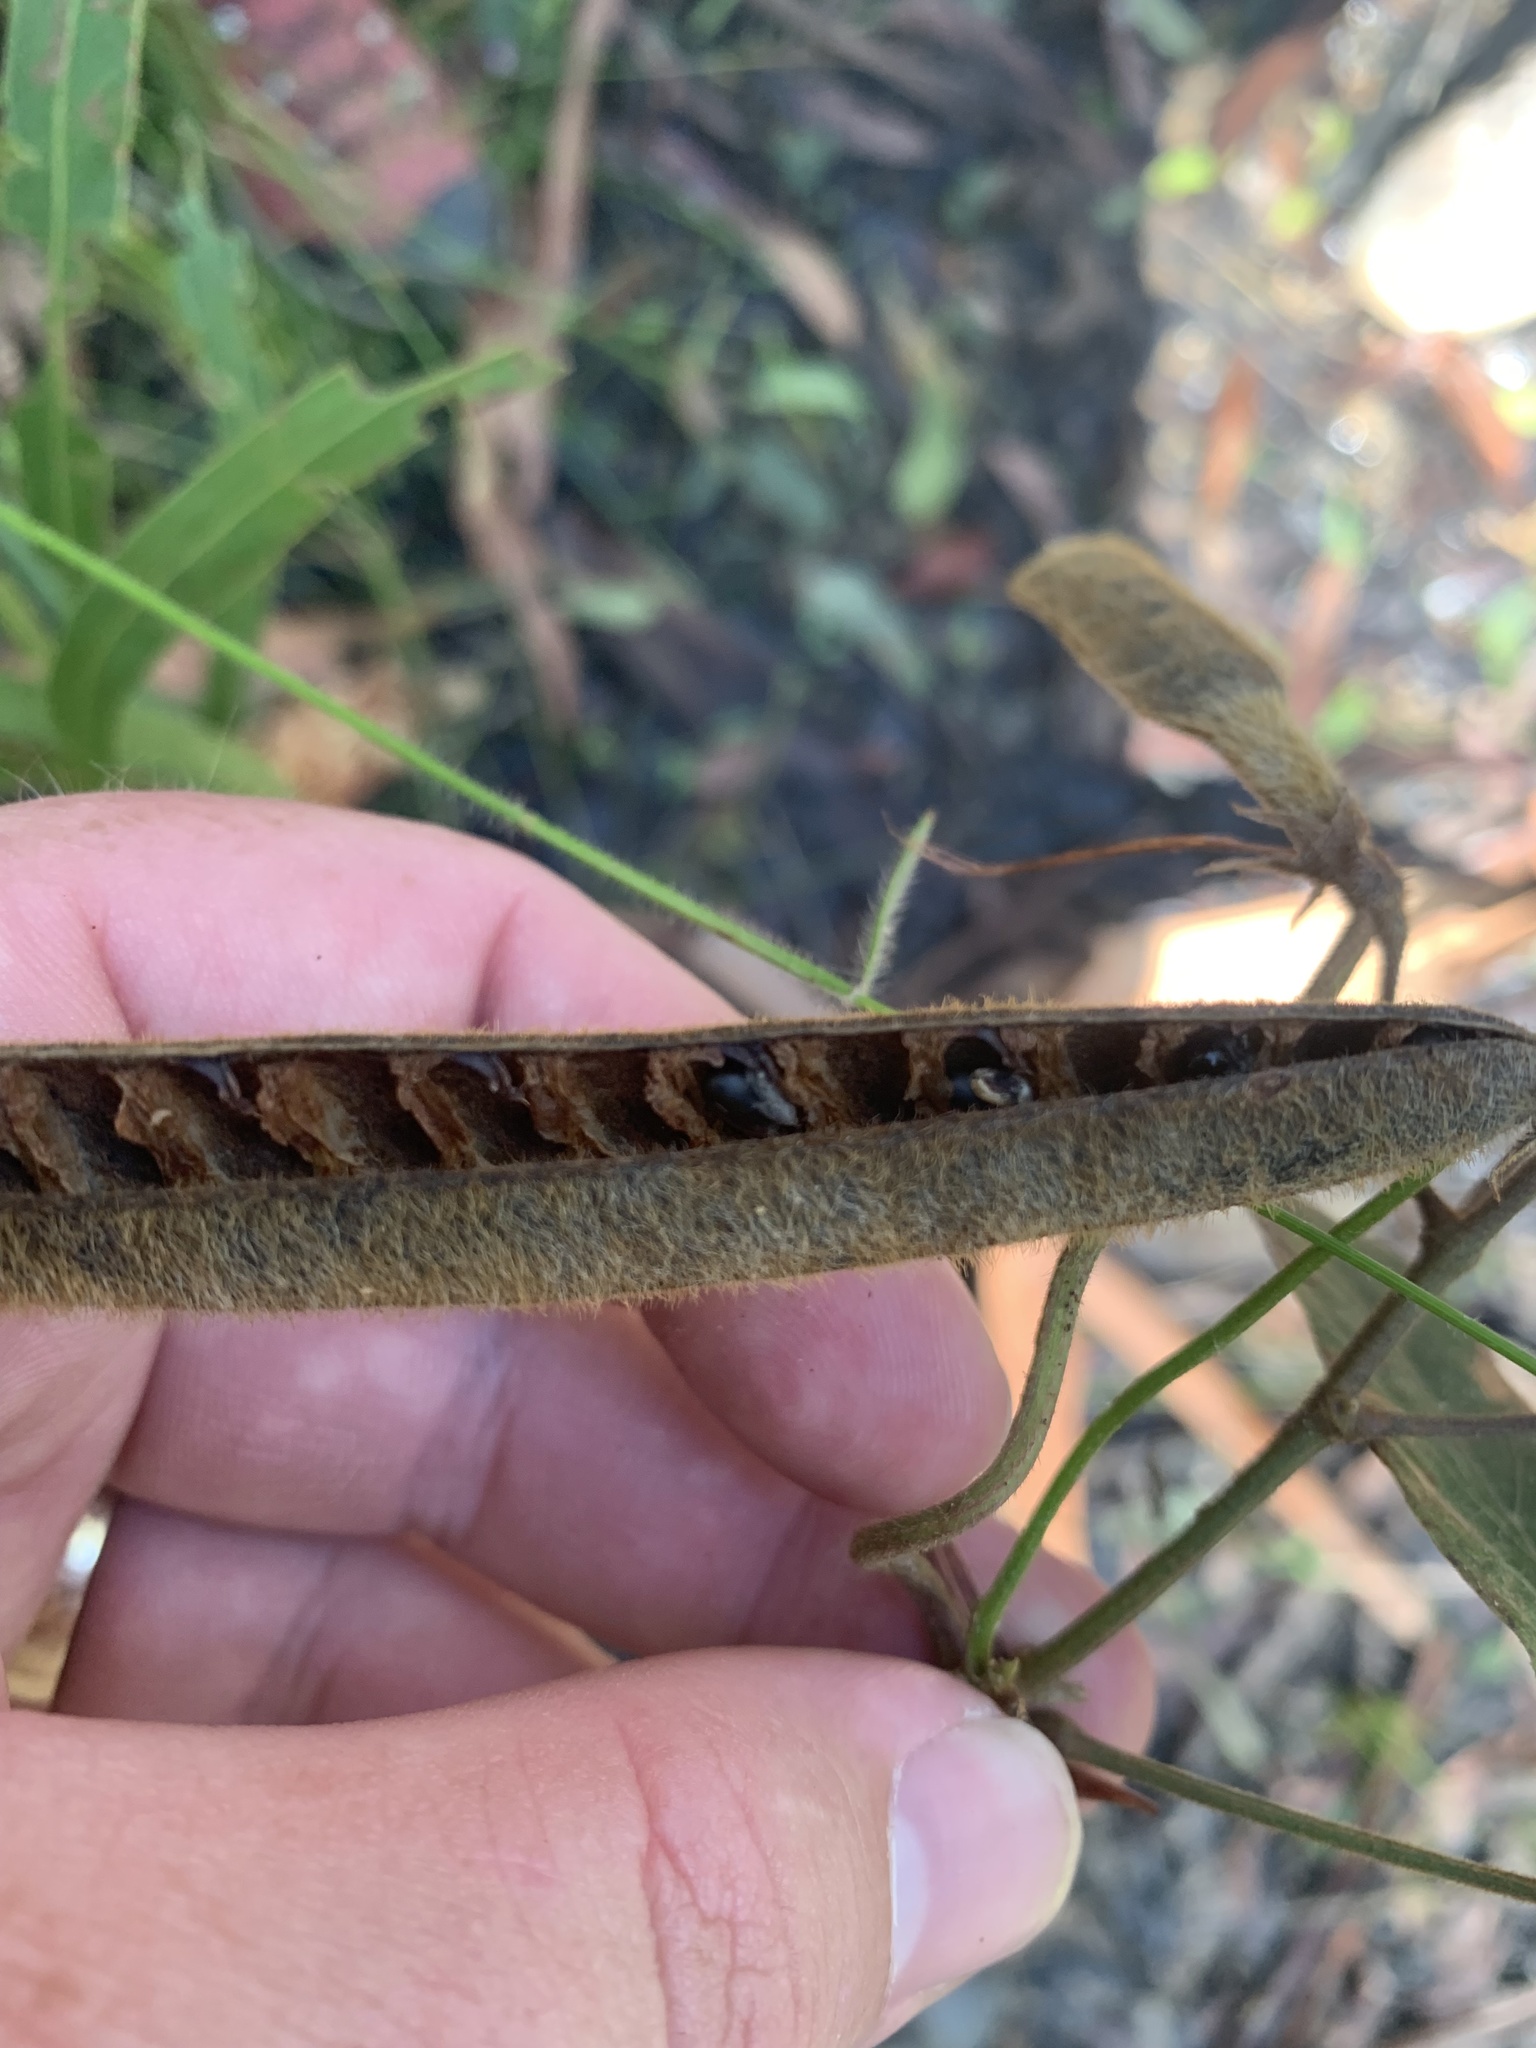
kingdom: Plantae
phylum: Tracheophyta
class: Magnoliopsida
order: Fabales
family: Fabaceae
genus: Kennedia
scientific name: Kennedia rubicunda
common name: Red kennedy-pea
